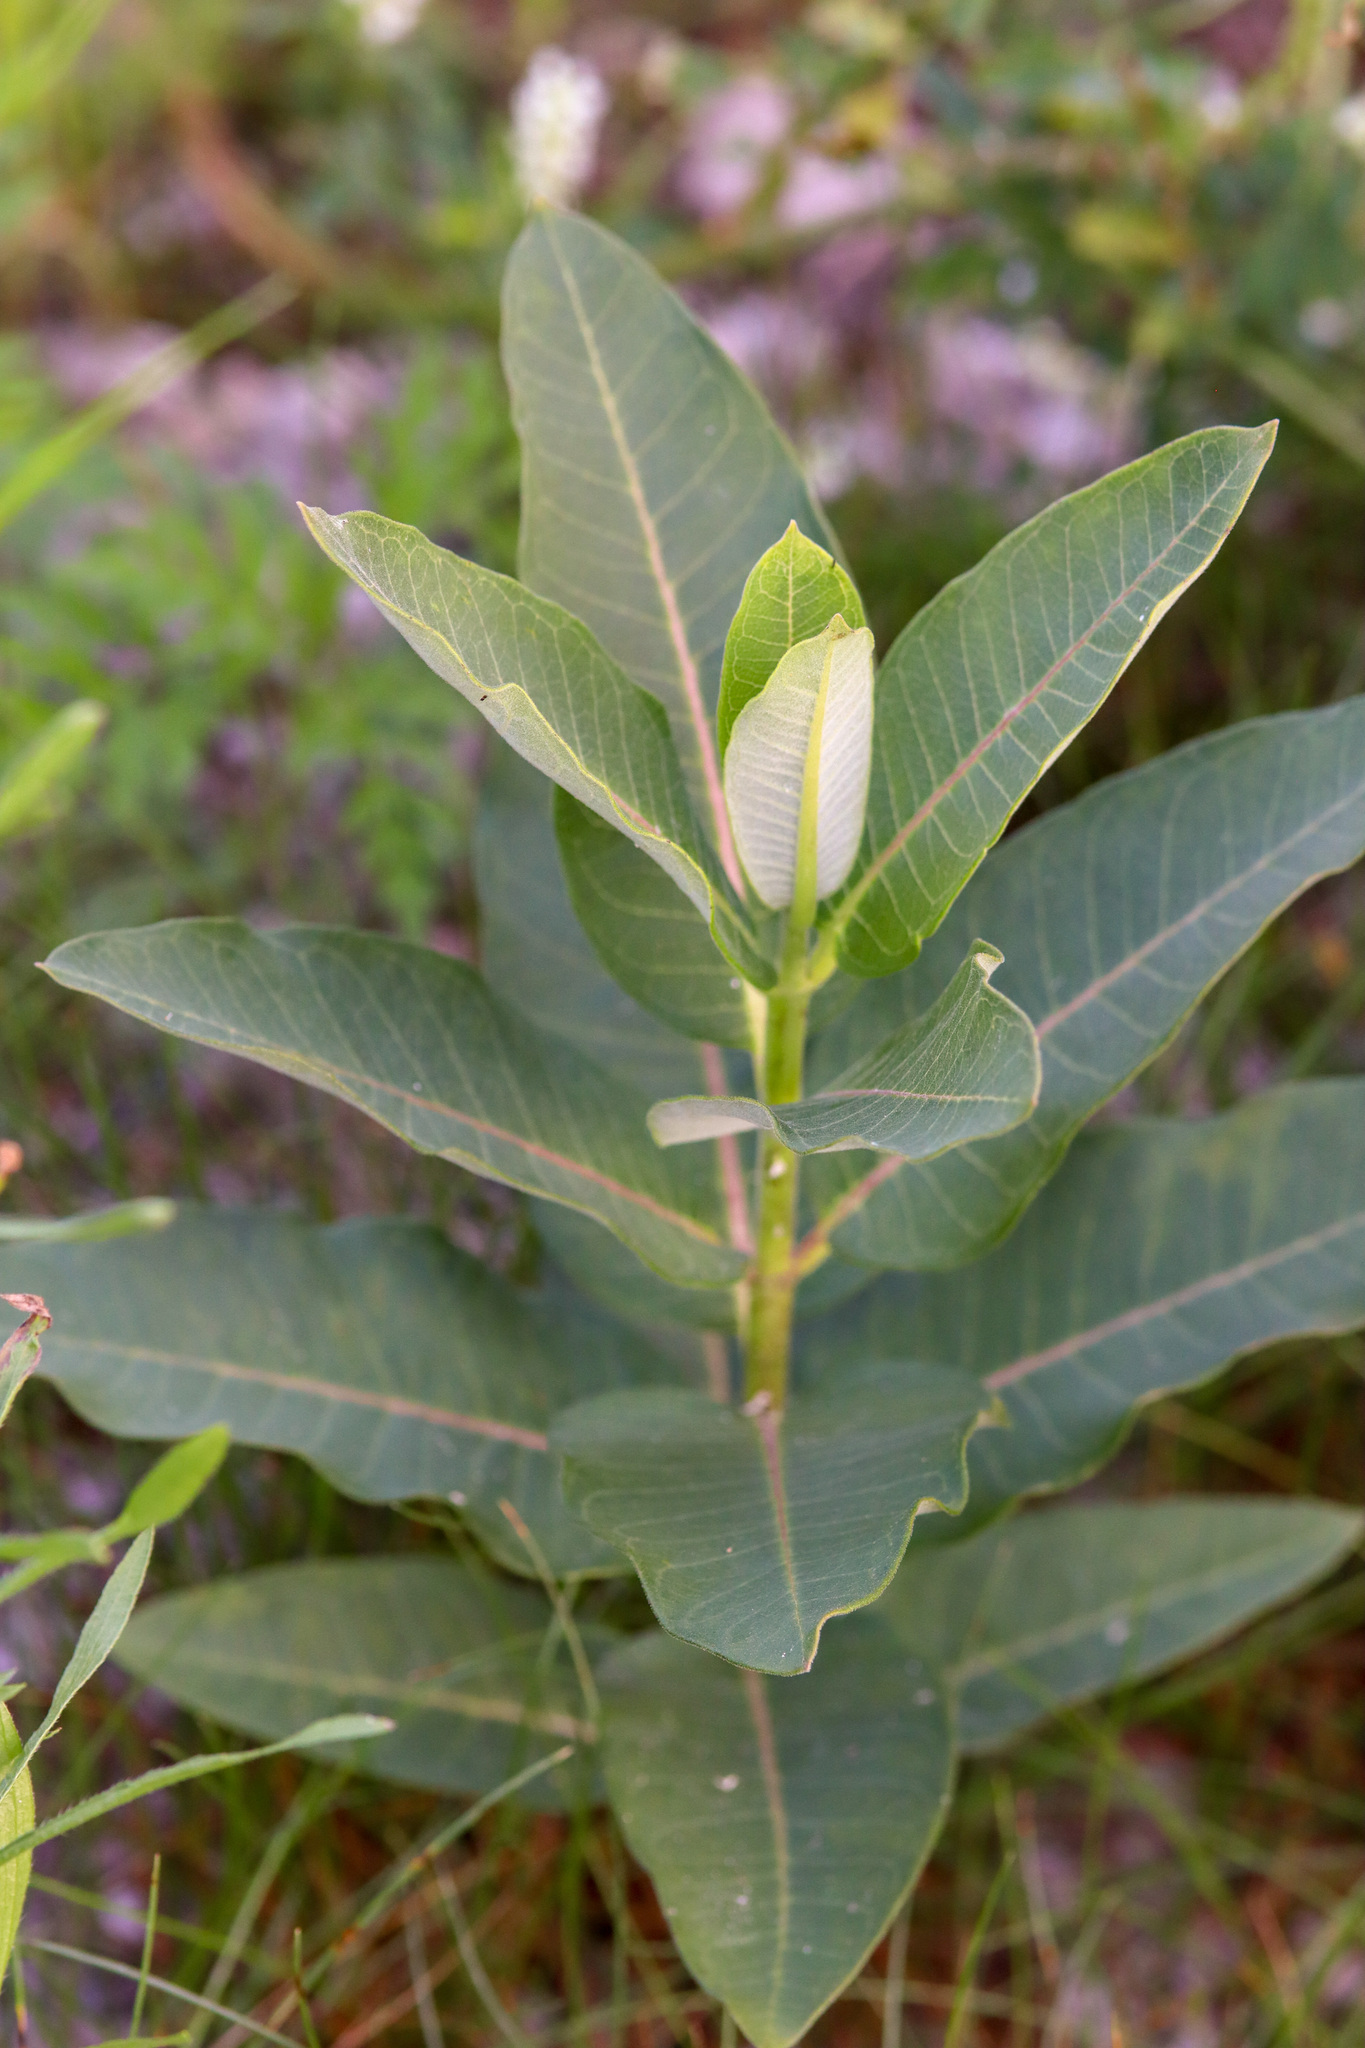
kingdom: Plantae
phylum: Tracheophyta
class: Magnoliopsida
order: Gentianales
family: Apocynaceae
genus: Asclepias
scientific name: Asclepias syriaca
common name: Common milkweed
